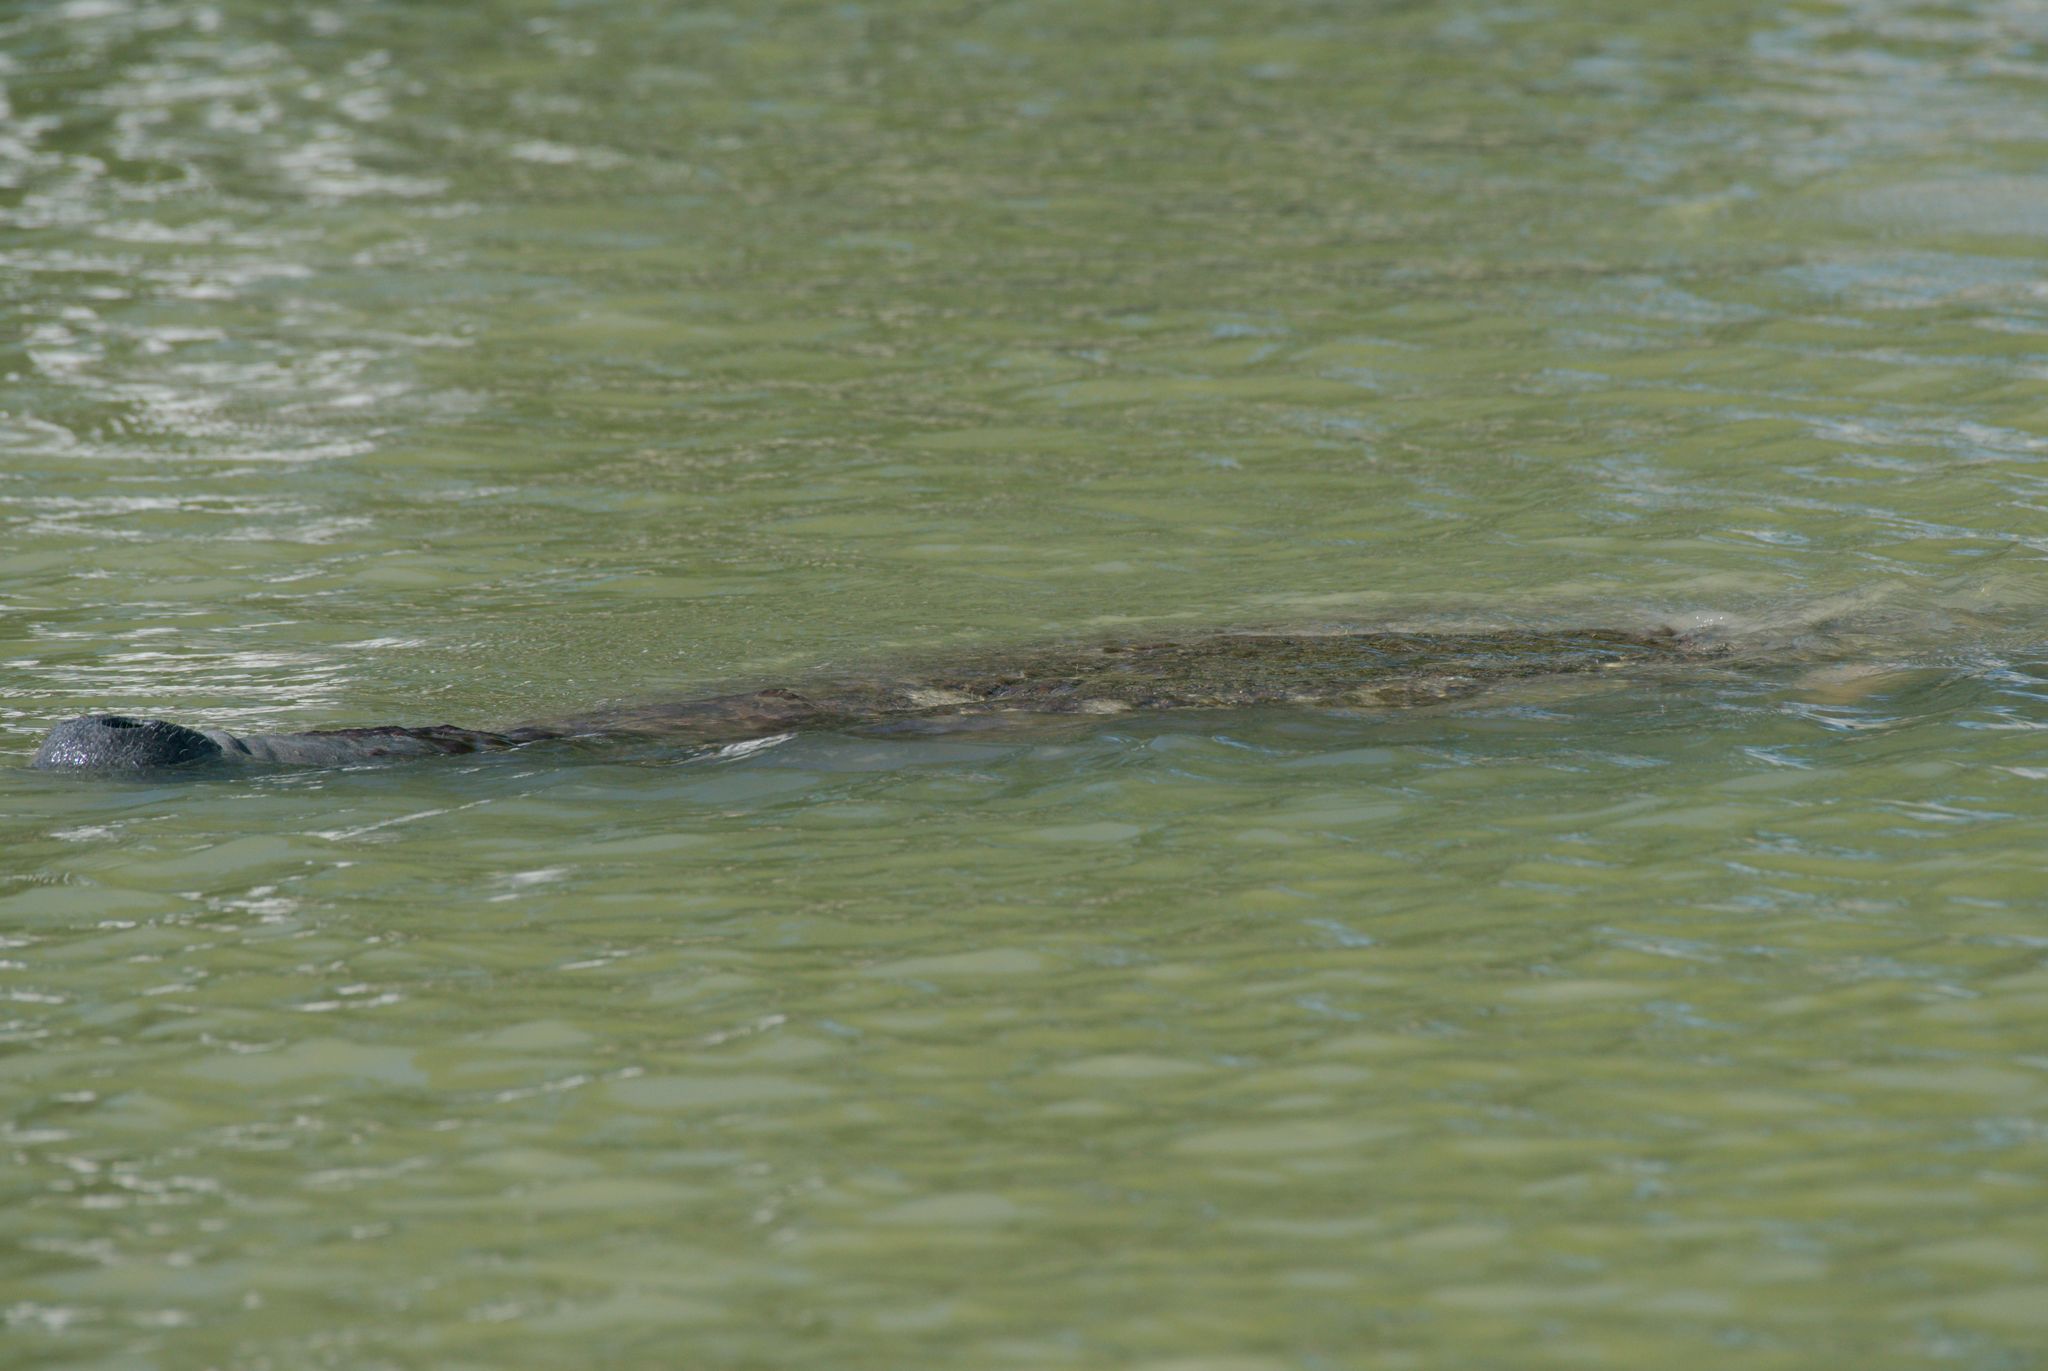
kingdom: Animalia
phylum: Chordata
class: Mammalia
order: Sirenia
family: Trichechidae
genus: Trichechus
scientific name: Trichechus manatus
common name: West indian manatee
